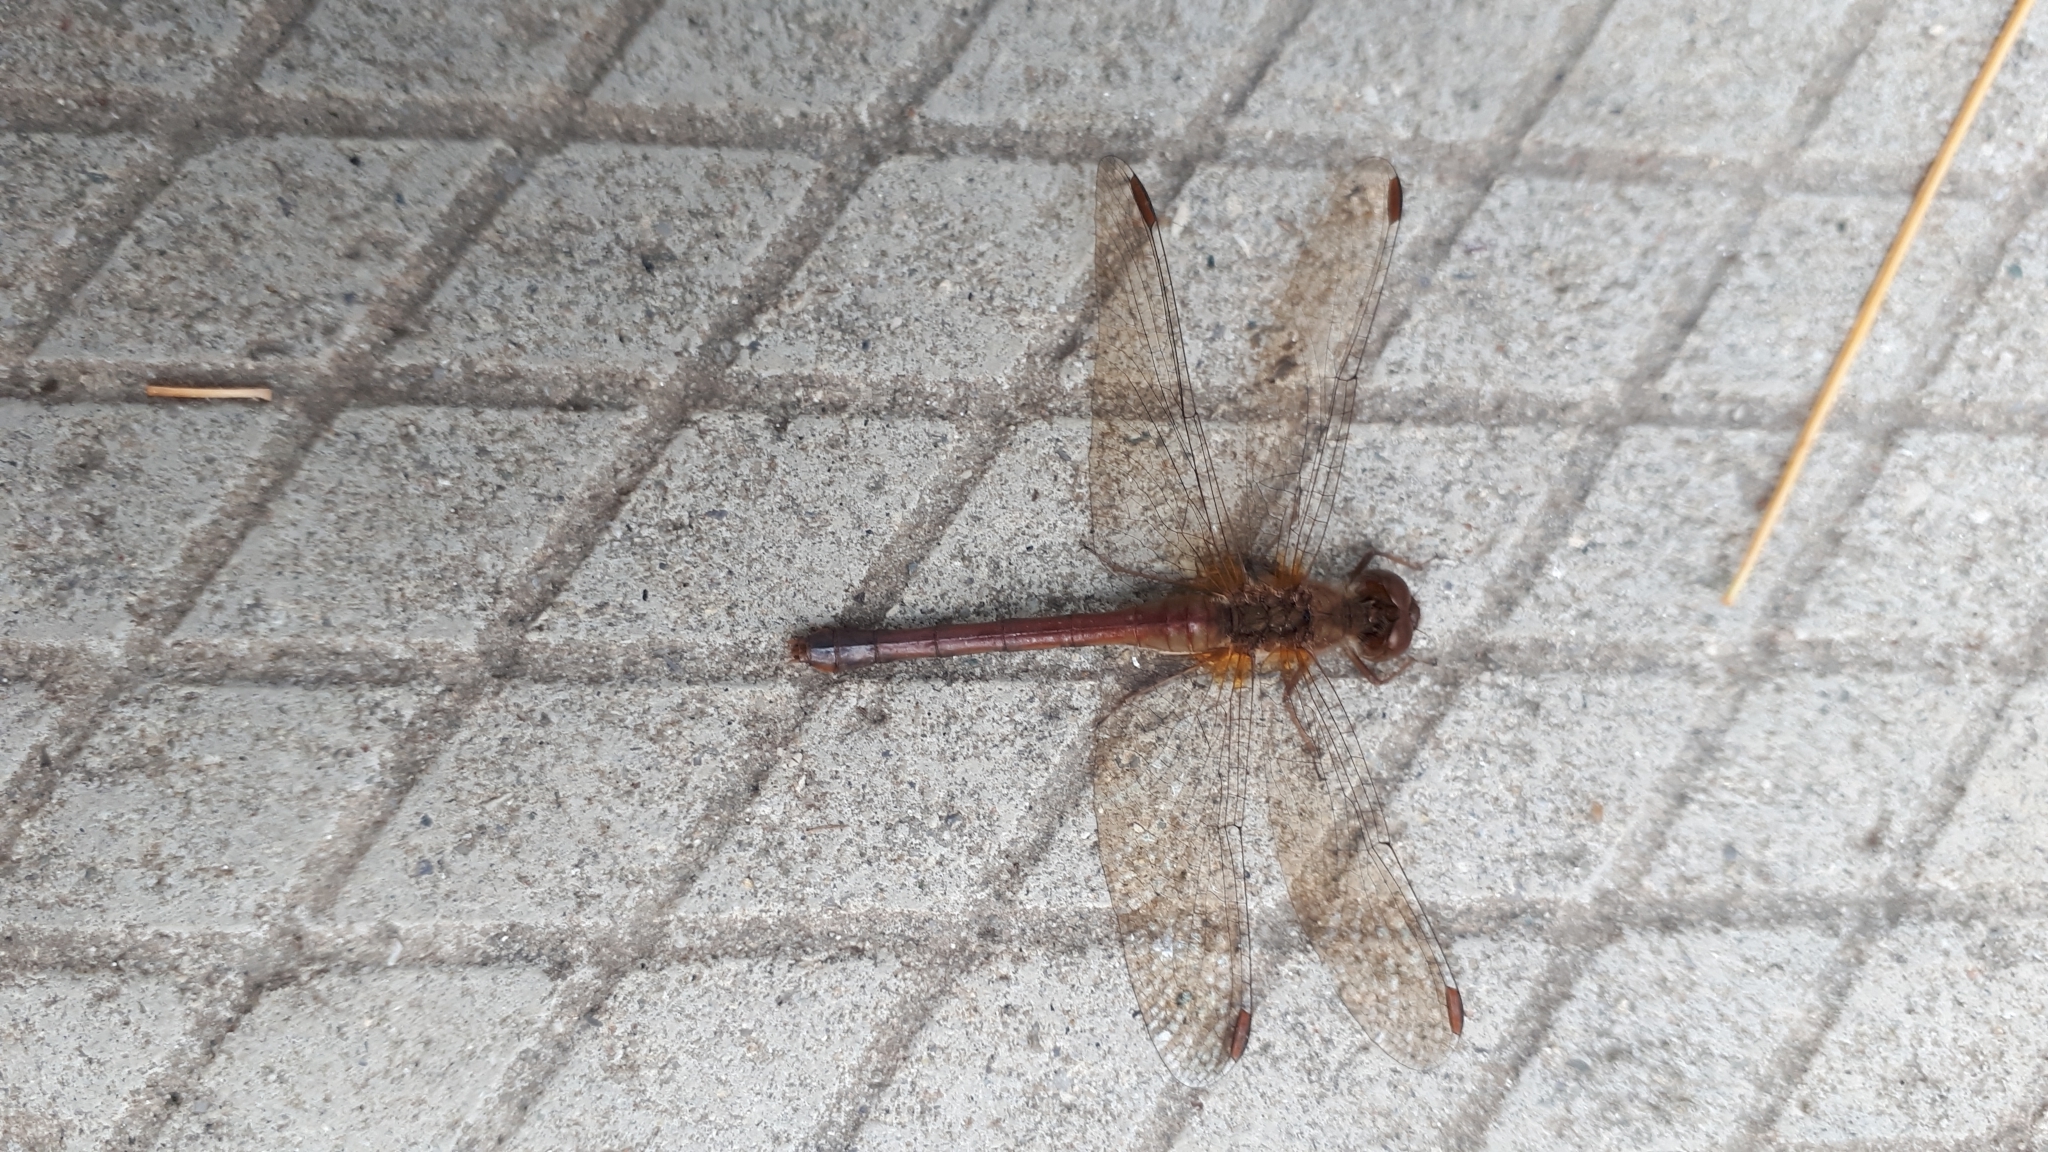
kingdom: Animalia
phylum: Arthropoda
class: Insecta
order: Odonata
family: Libellulidae
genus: Sympetrum
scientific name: Sympetrum vicinum
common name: Autumn meadowhawk
